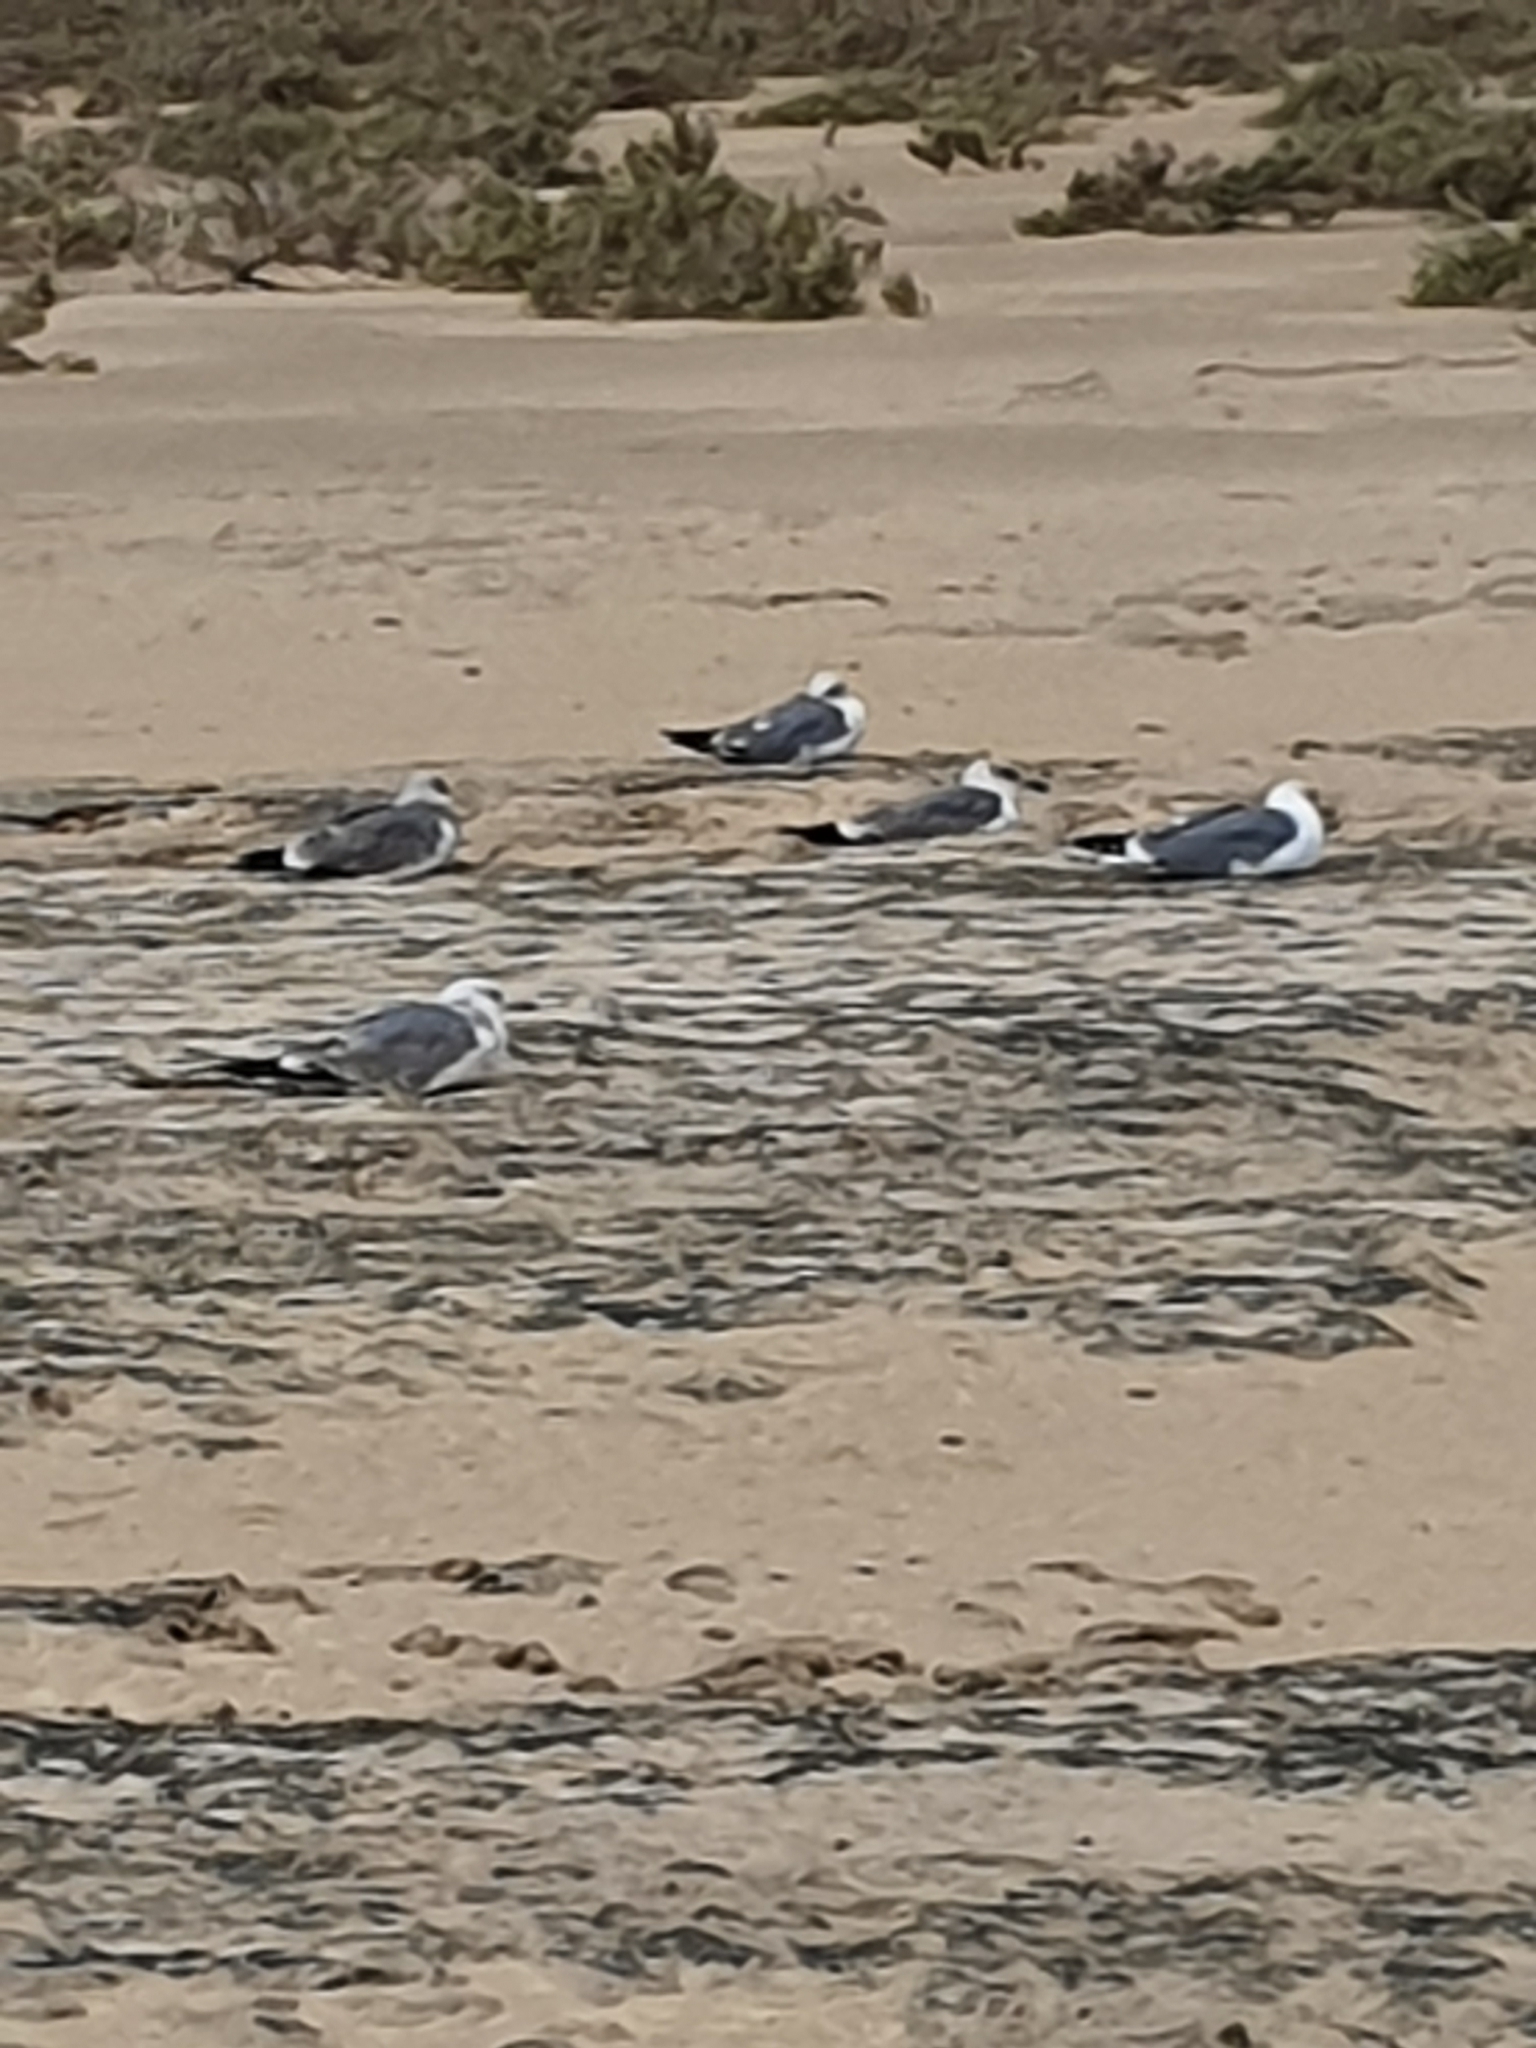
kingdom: Animalia
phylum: Chordata
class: Aves
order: Charadriiformes
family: Laridae
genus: Larus
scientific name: Larus michahellis
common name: Yellow-legged gull
